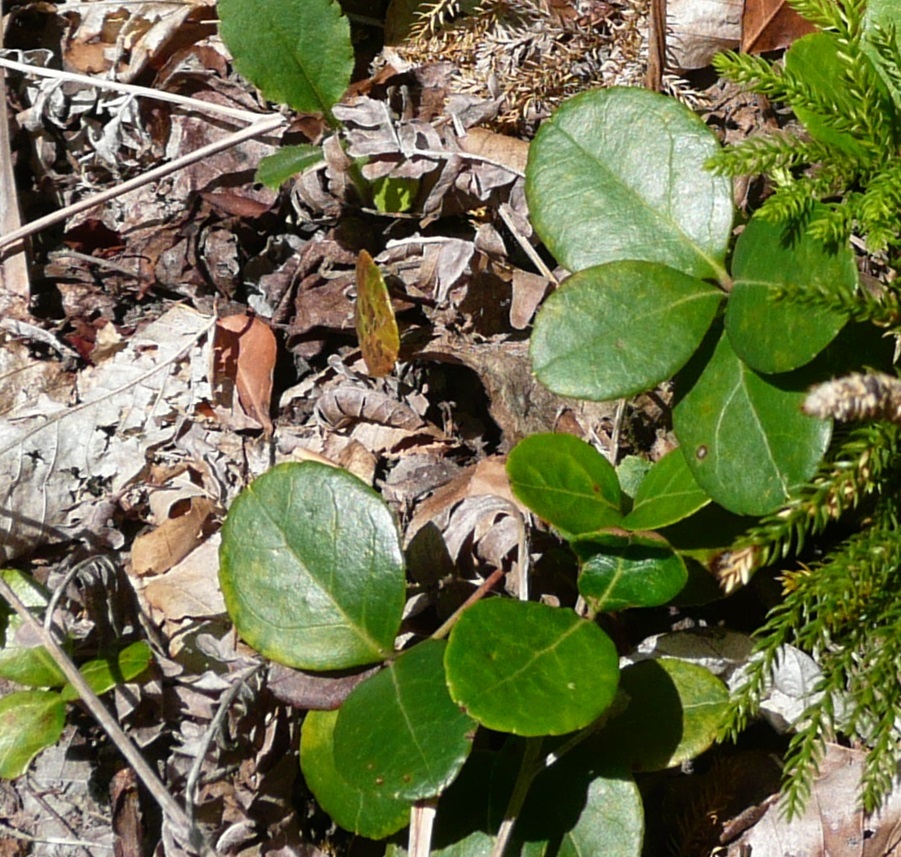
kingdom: Plantae
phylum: Tracheophyta
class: Magnoliopsida
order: Ericales
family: Ericaceae
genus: Gaultheria
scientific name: Gaultheria procumbens
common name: Checkerberry
